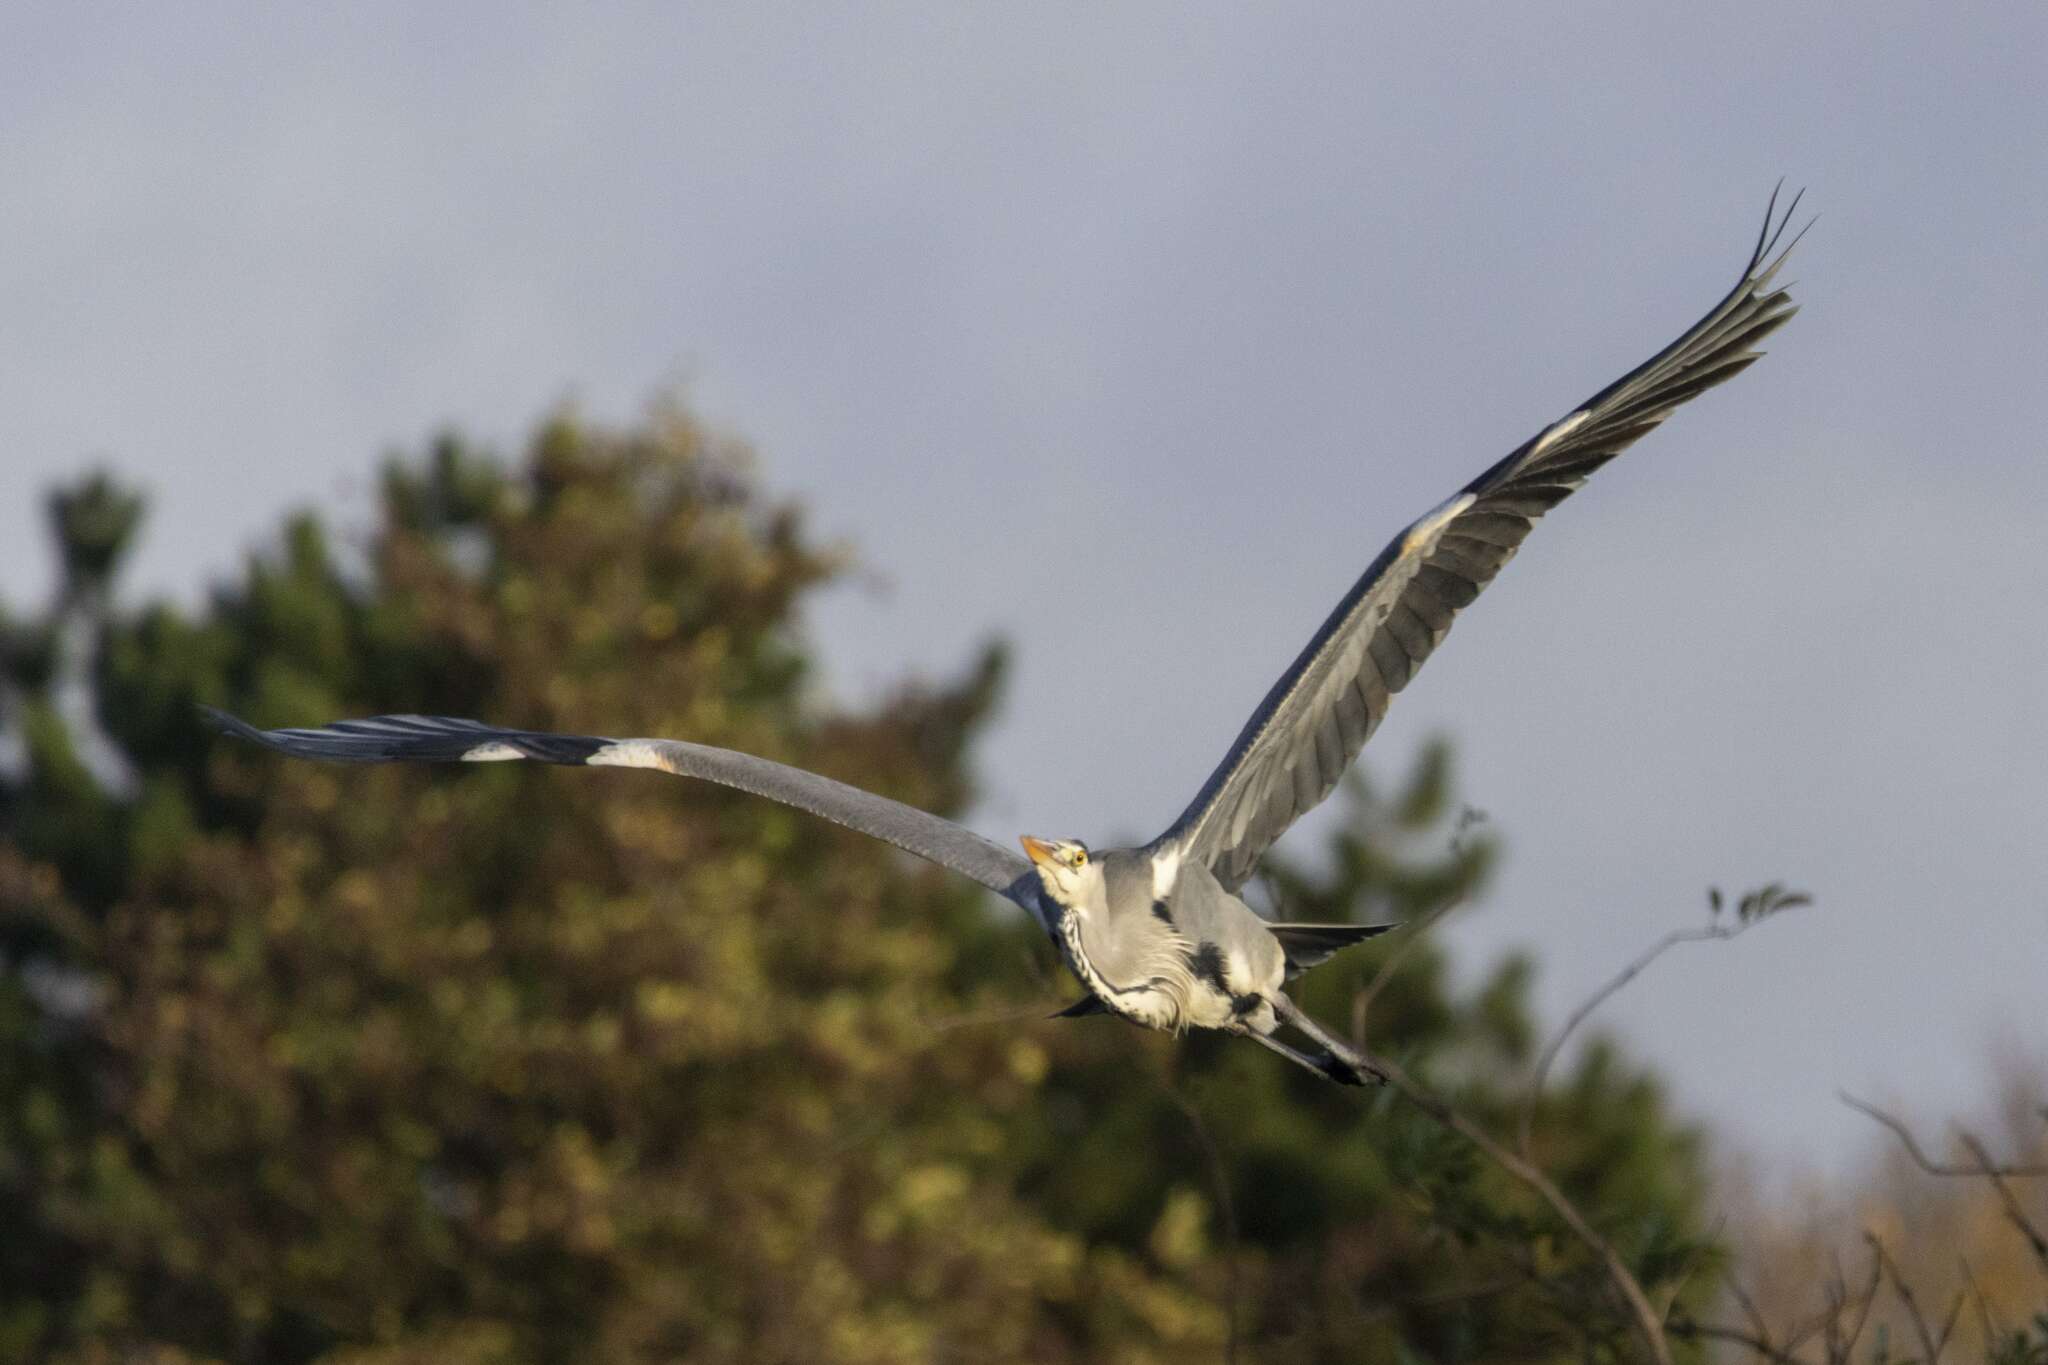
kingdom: Animalia
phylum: Chordata
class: Aves
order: Pelecaniformes
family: Ardeidae
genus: Ardea
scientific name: Ardea cinerea
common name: Grey heron
